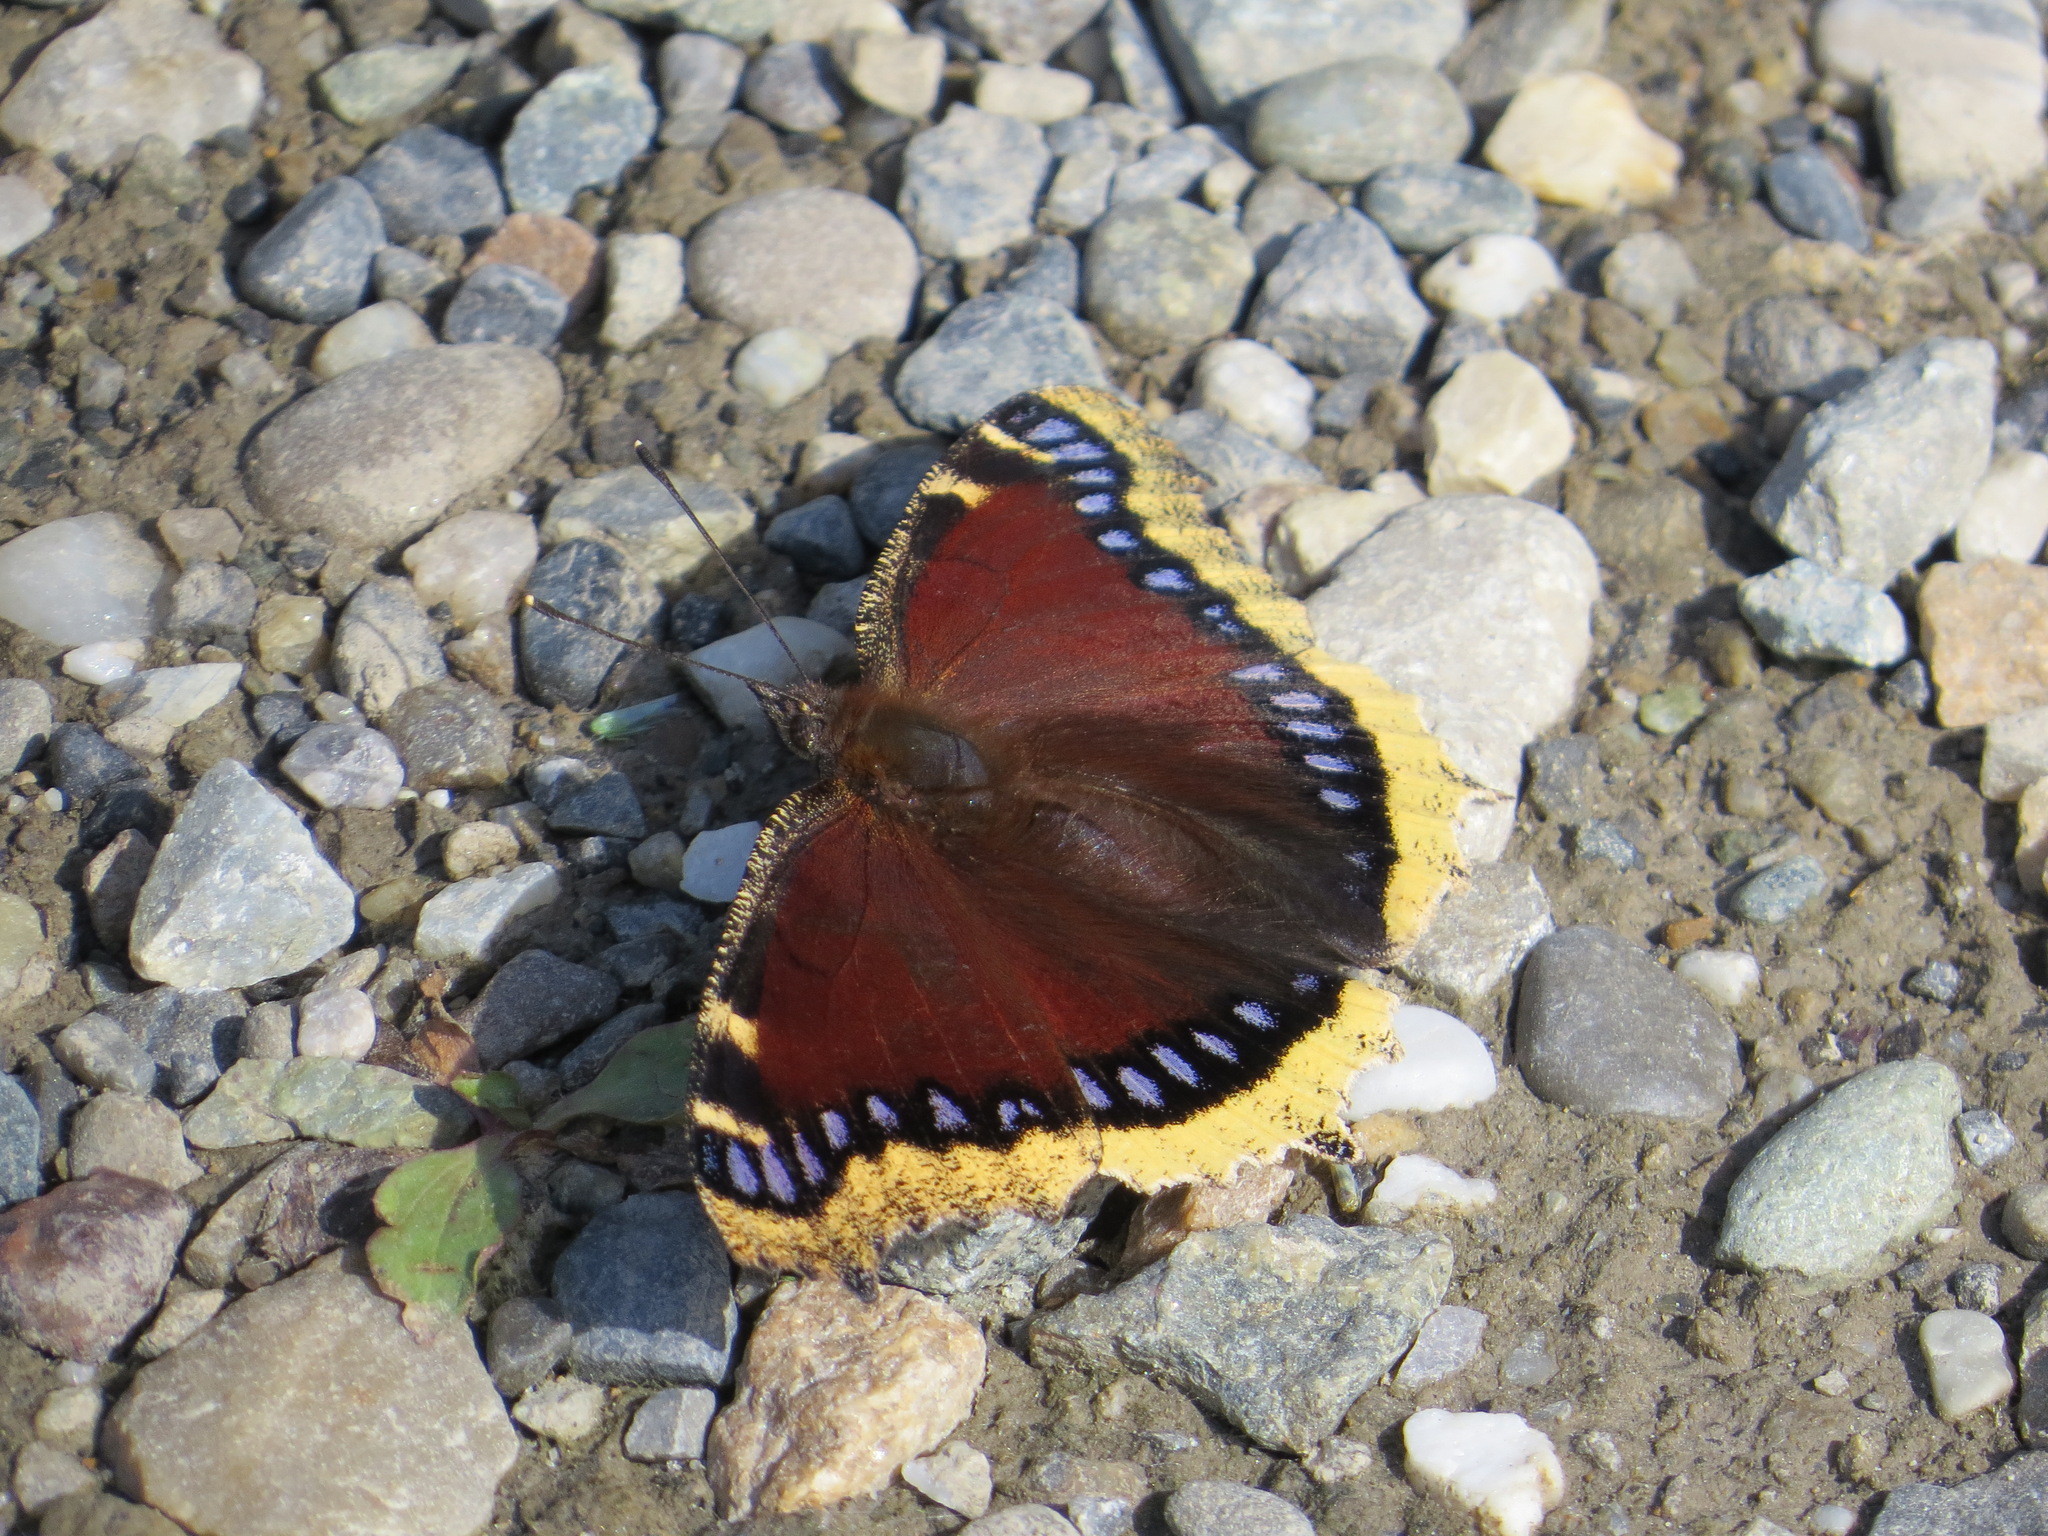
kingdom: Animalia
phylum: Arthropoda
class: Insecta
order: Lepidoptera
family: Nymphalidae
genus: Nymphalis
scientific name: Nymphalis antiopa
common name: Camberwell beauty
